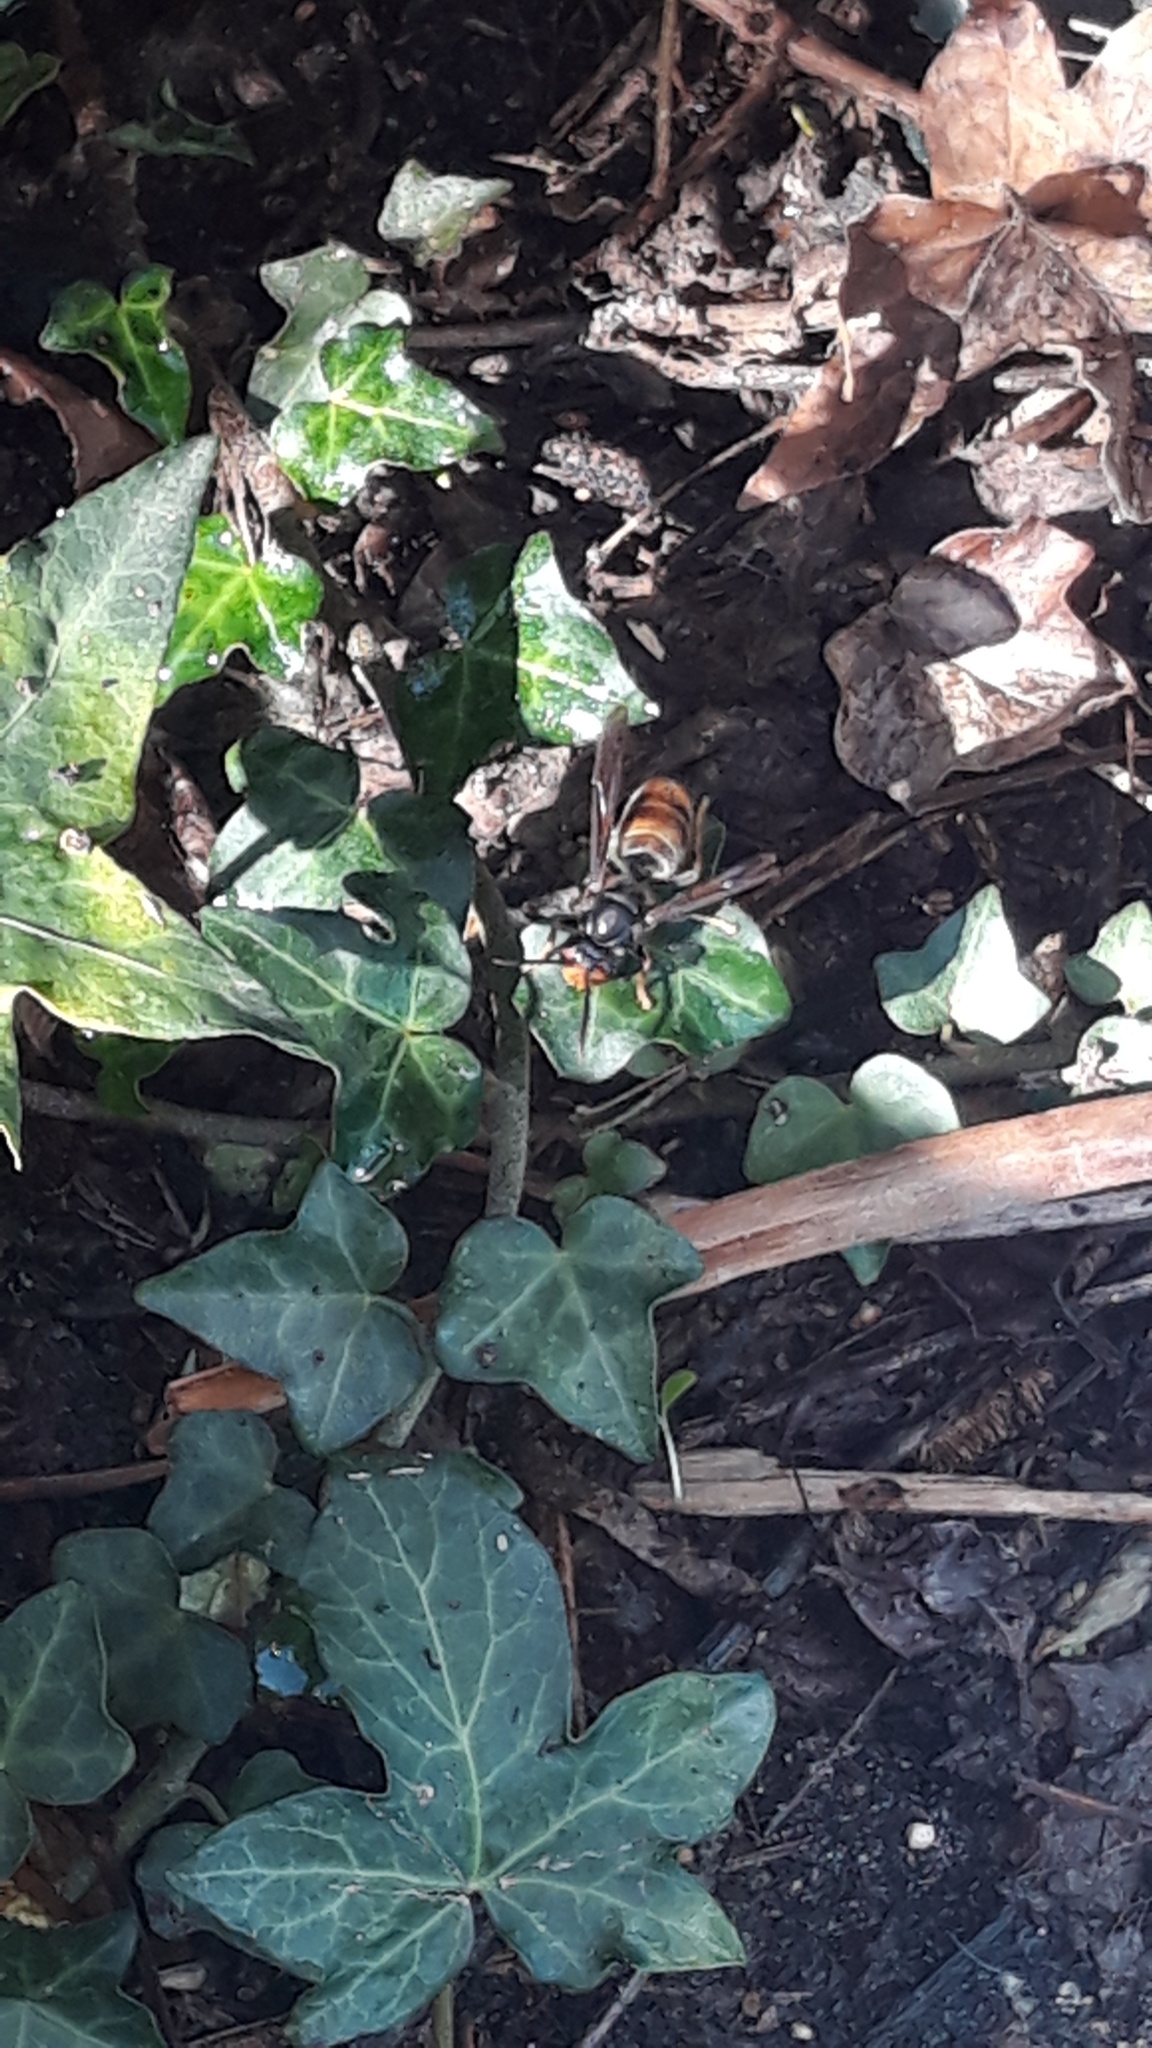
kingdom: Animalia
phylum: Arthropoda
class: Insecta
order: Hymenoptera
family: Vespidae
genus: Vespa
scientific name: Vespa velutina
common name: Asian hornet
